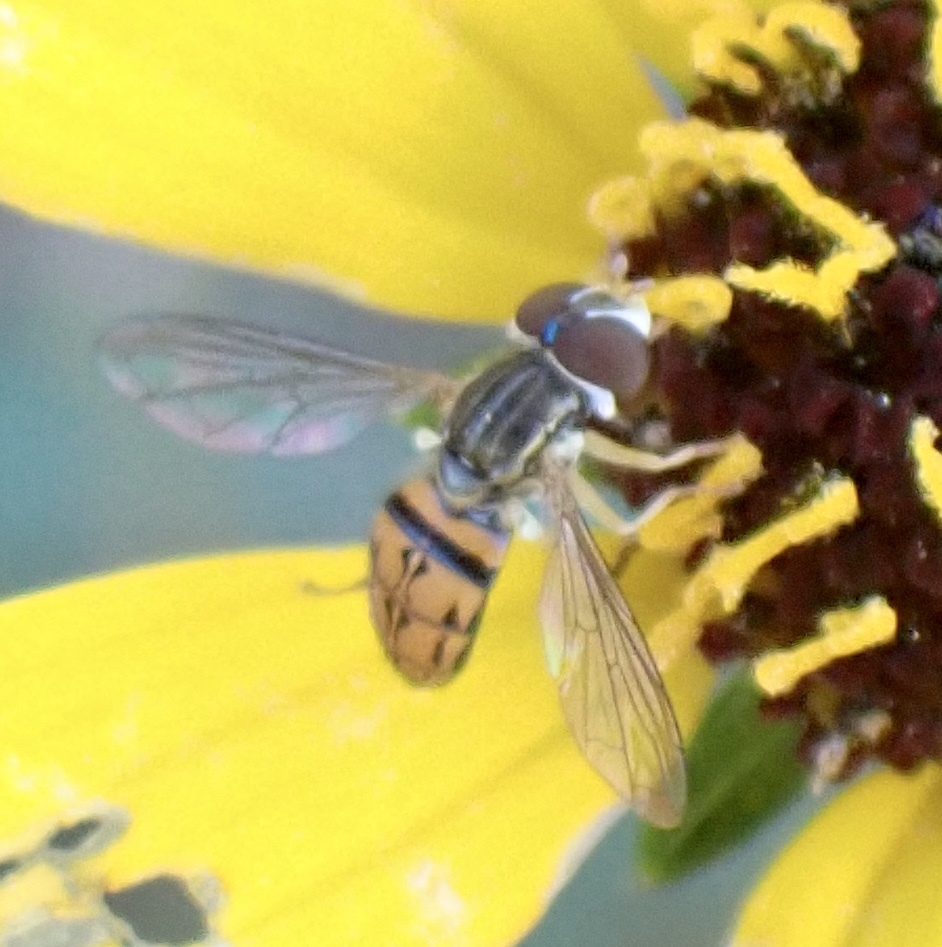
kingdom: Animalia
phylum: Arthropoda
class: Insecta
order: Diptera
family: Syrphidae
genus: Toxomerus
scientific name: Toxomerus boscii
